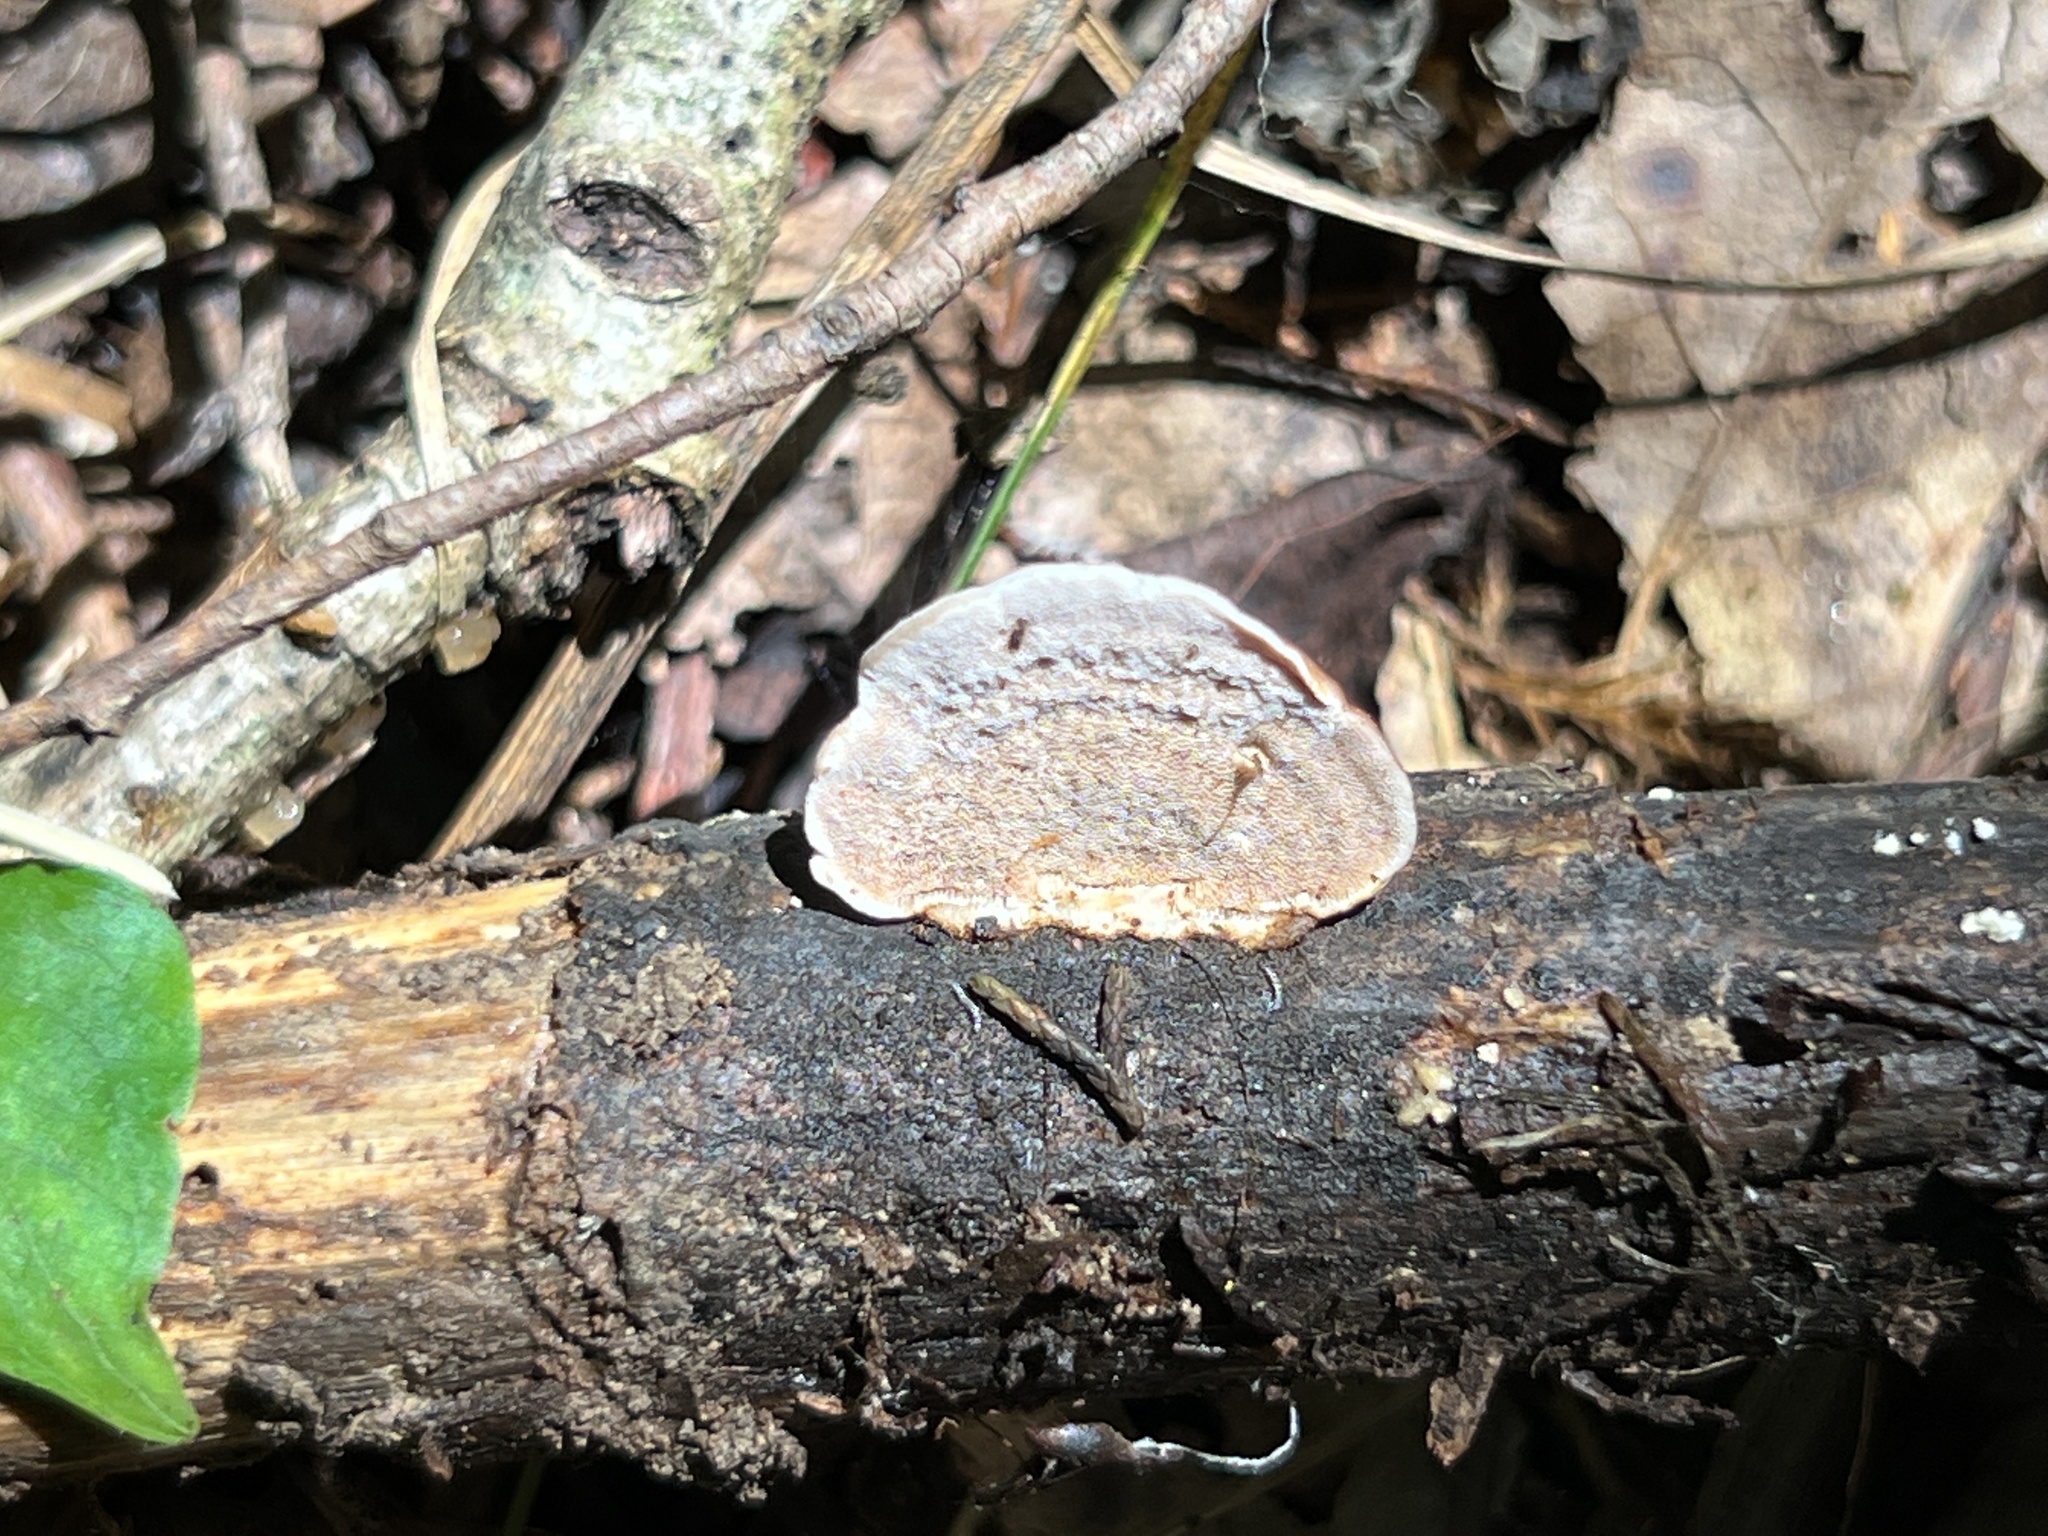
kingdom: Fungi
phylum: Basidiomycota
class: Agaricomycetes
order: Polyporales
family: Steccherinaceae
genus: Metuloidea
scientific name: Metuloidea fragrans
